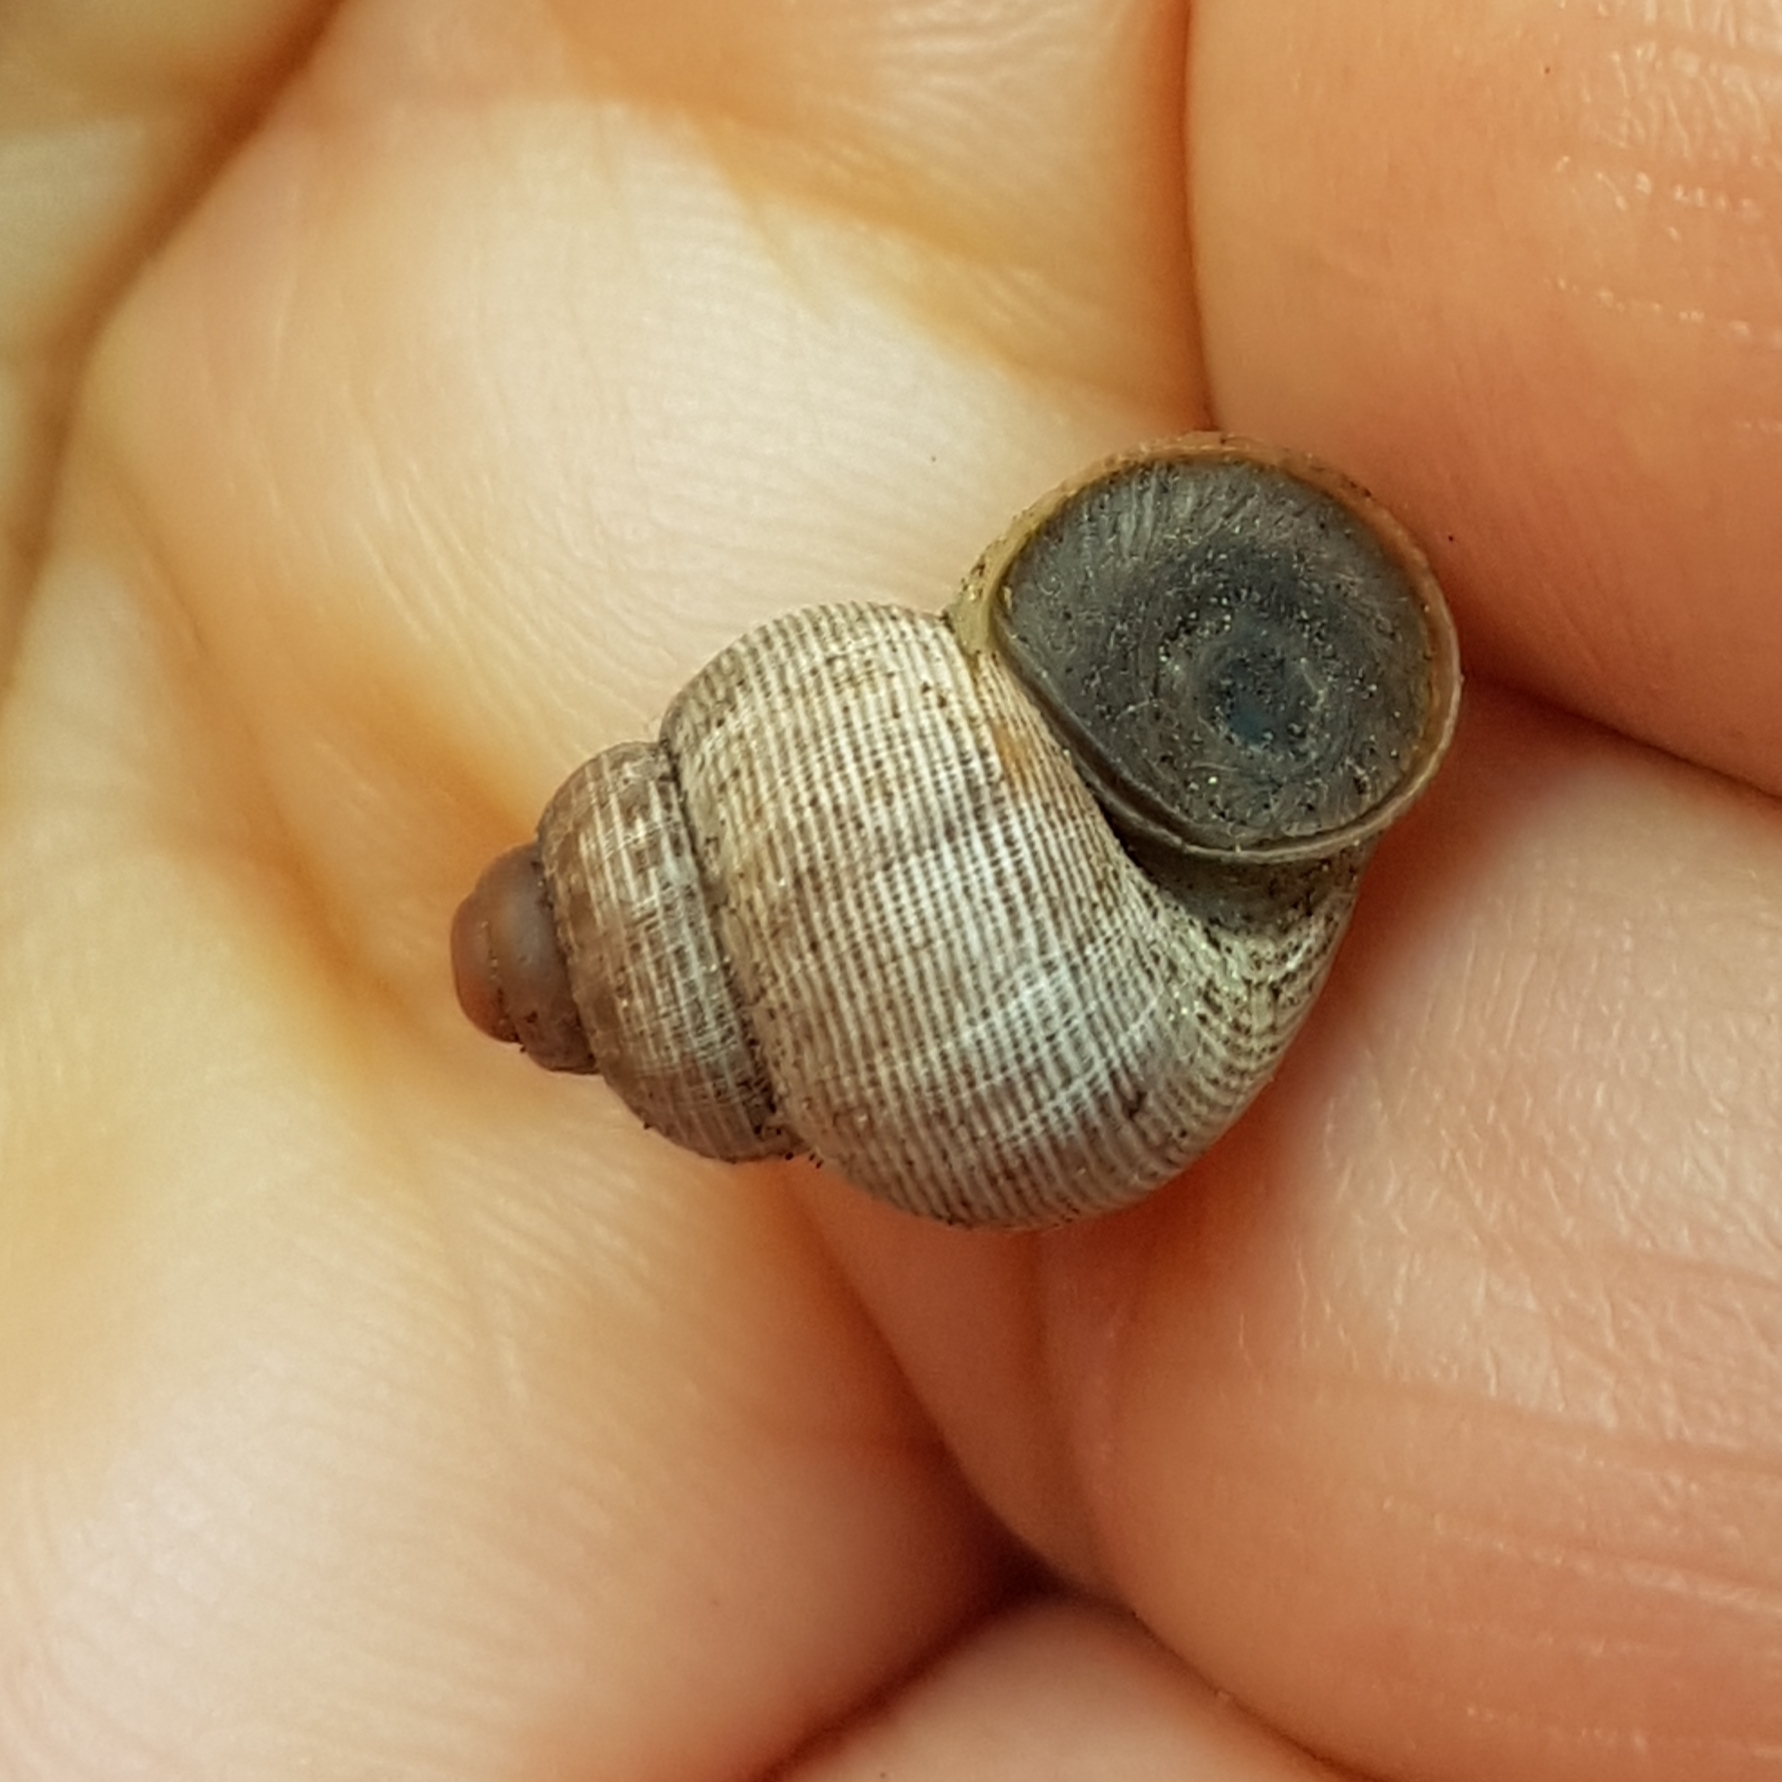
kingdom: Animalia
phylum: Mollusca
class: Gastropoda
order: Littorinimorpha
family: Pomatiidae
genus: Pomatias
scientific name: Pomatias elegans
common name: Red-mouthed snail
